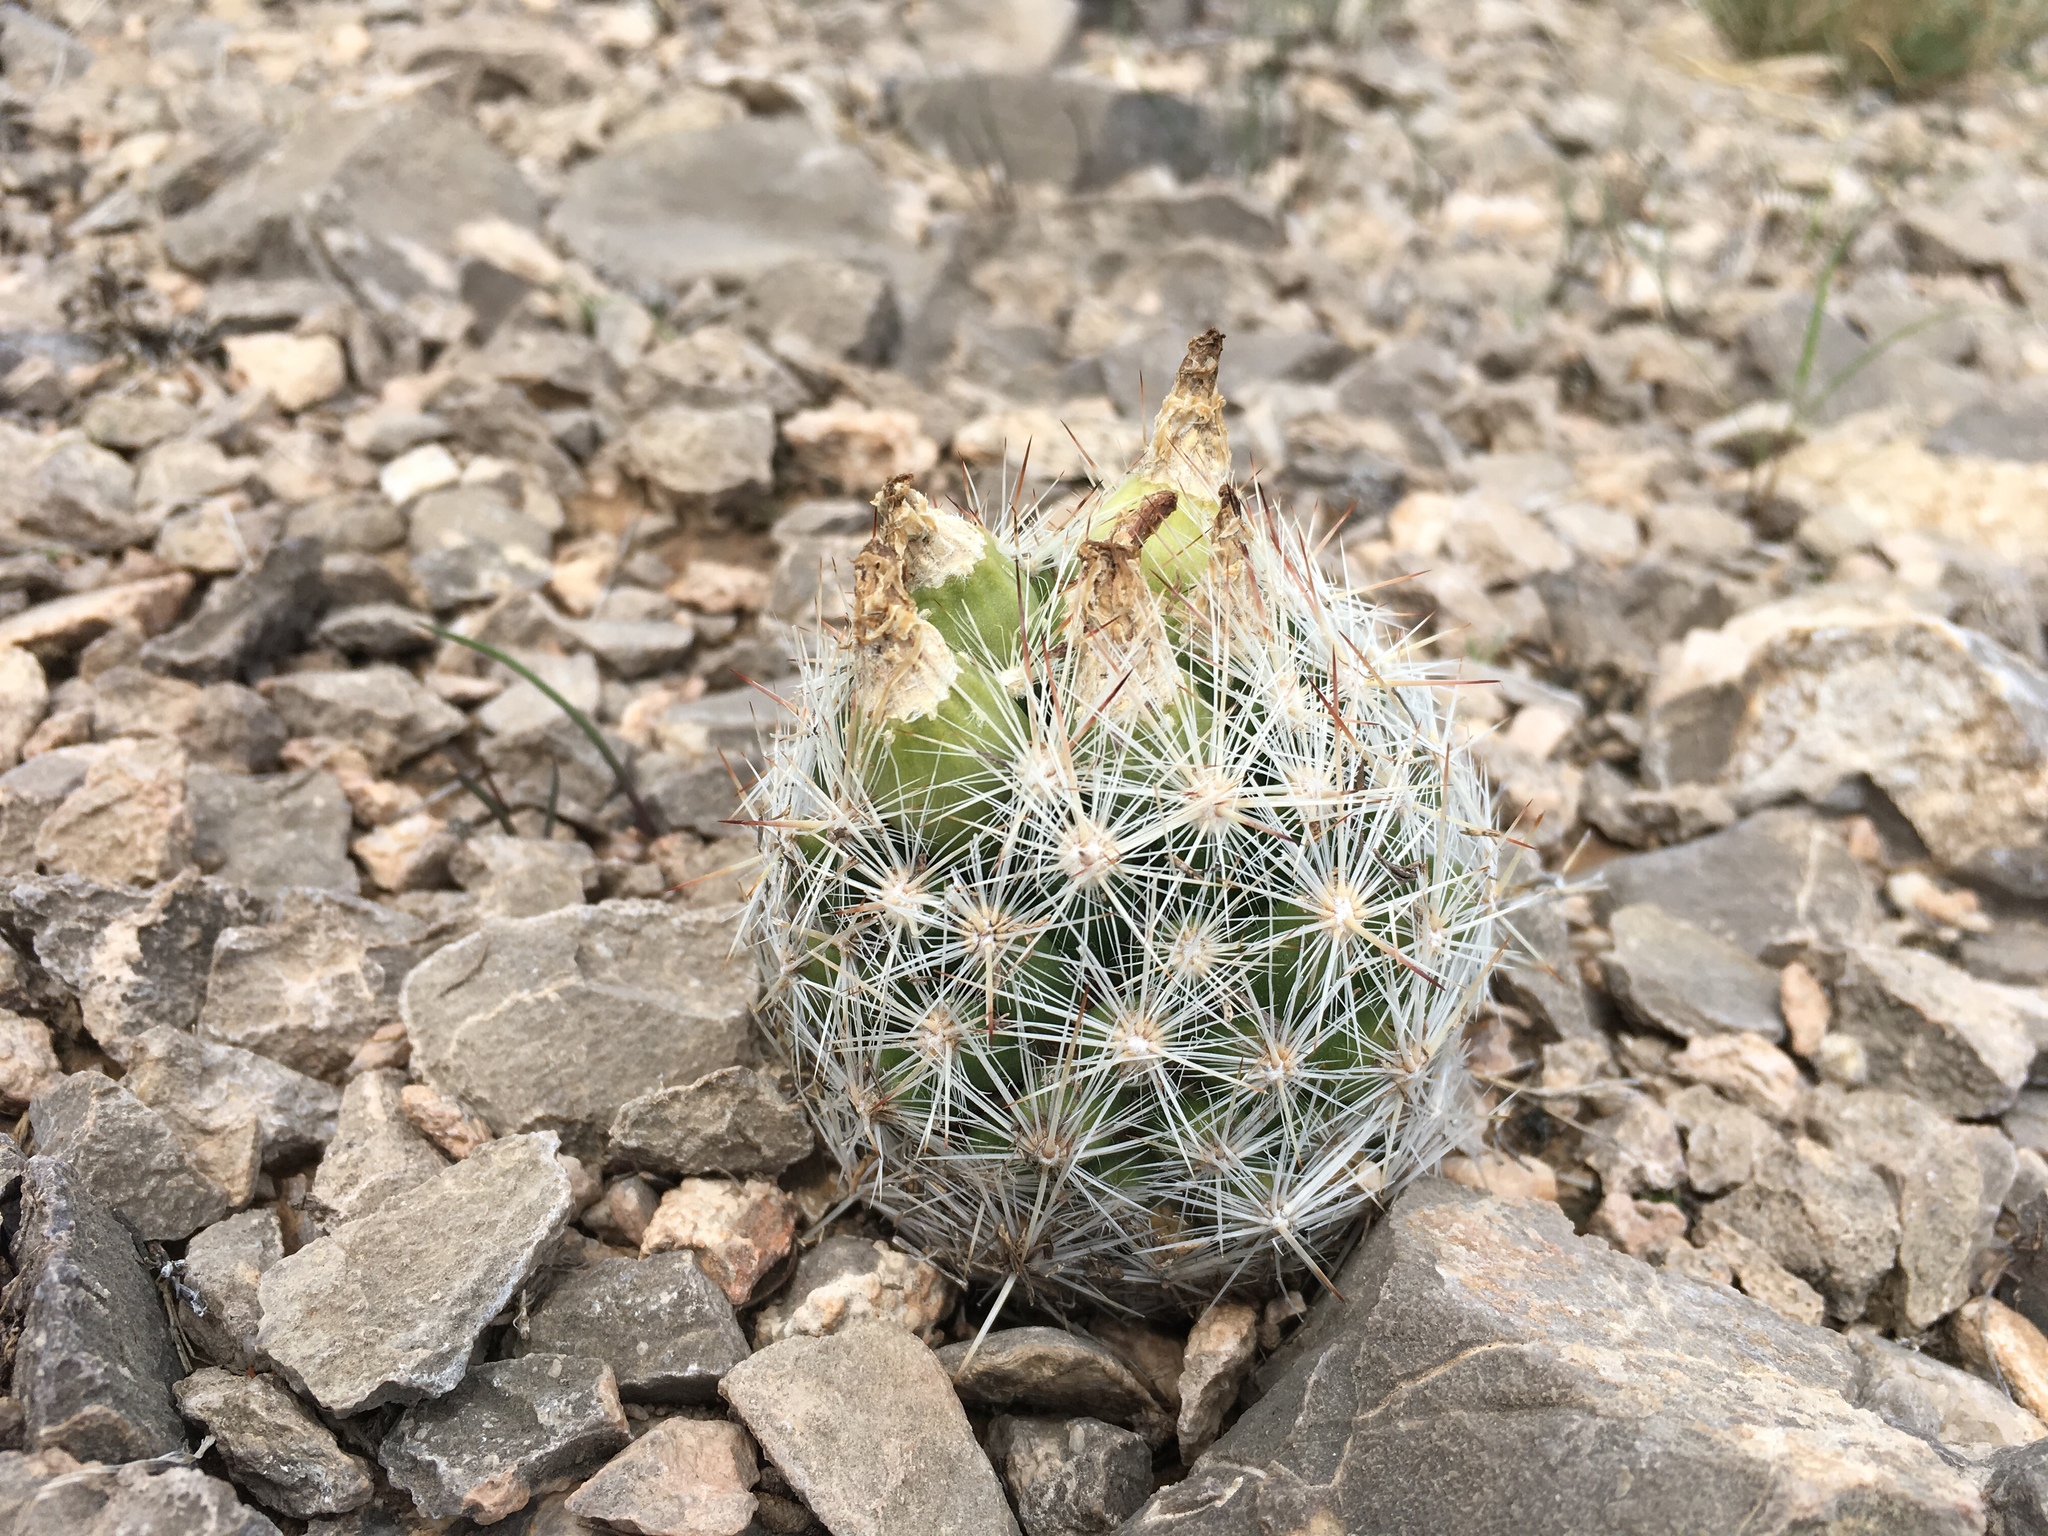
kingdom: Plantae
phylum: Tracheophyta
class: Magnoliopsida
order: Caryophyllales
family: Cactaceae
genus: Pelecyphora
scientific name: Pelecyphora vivipara
